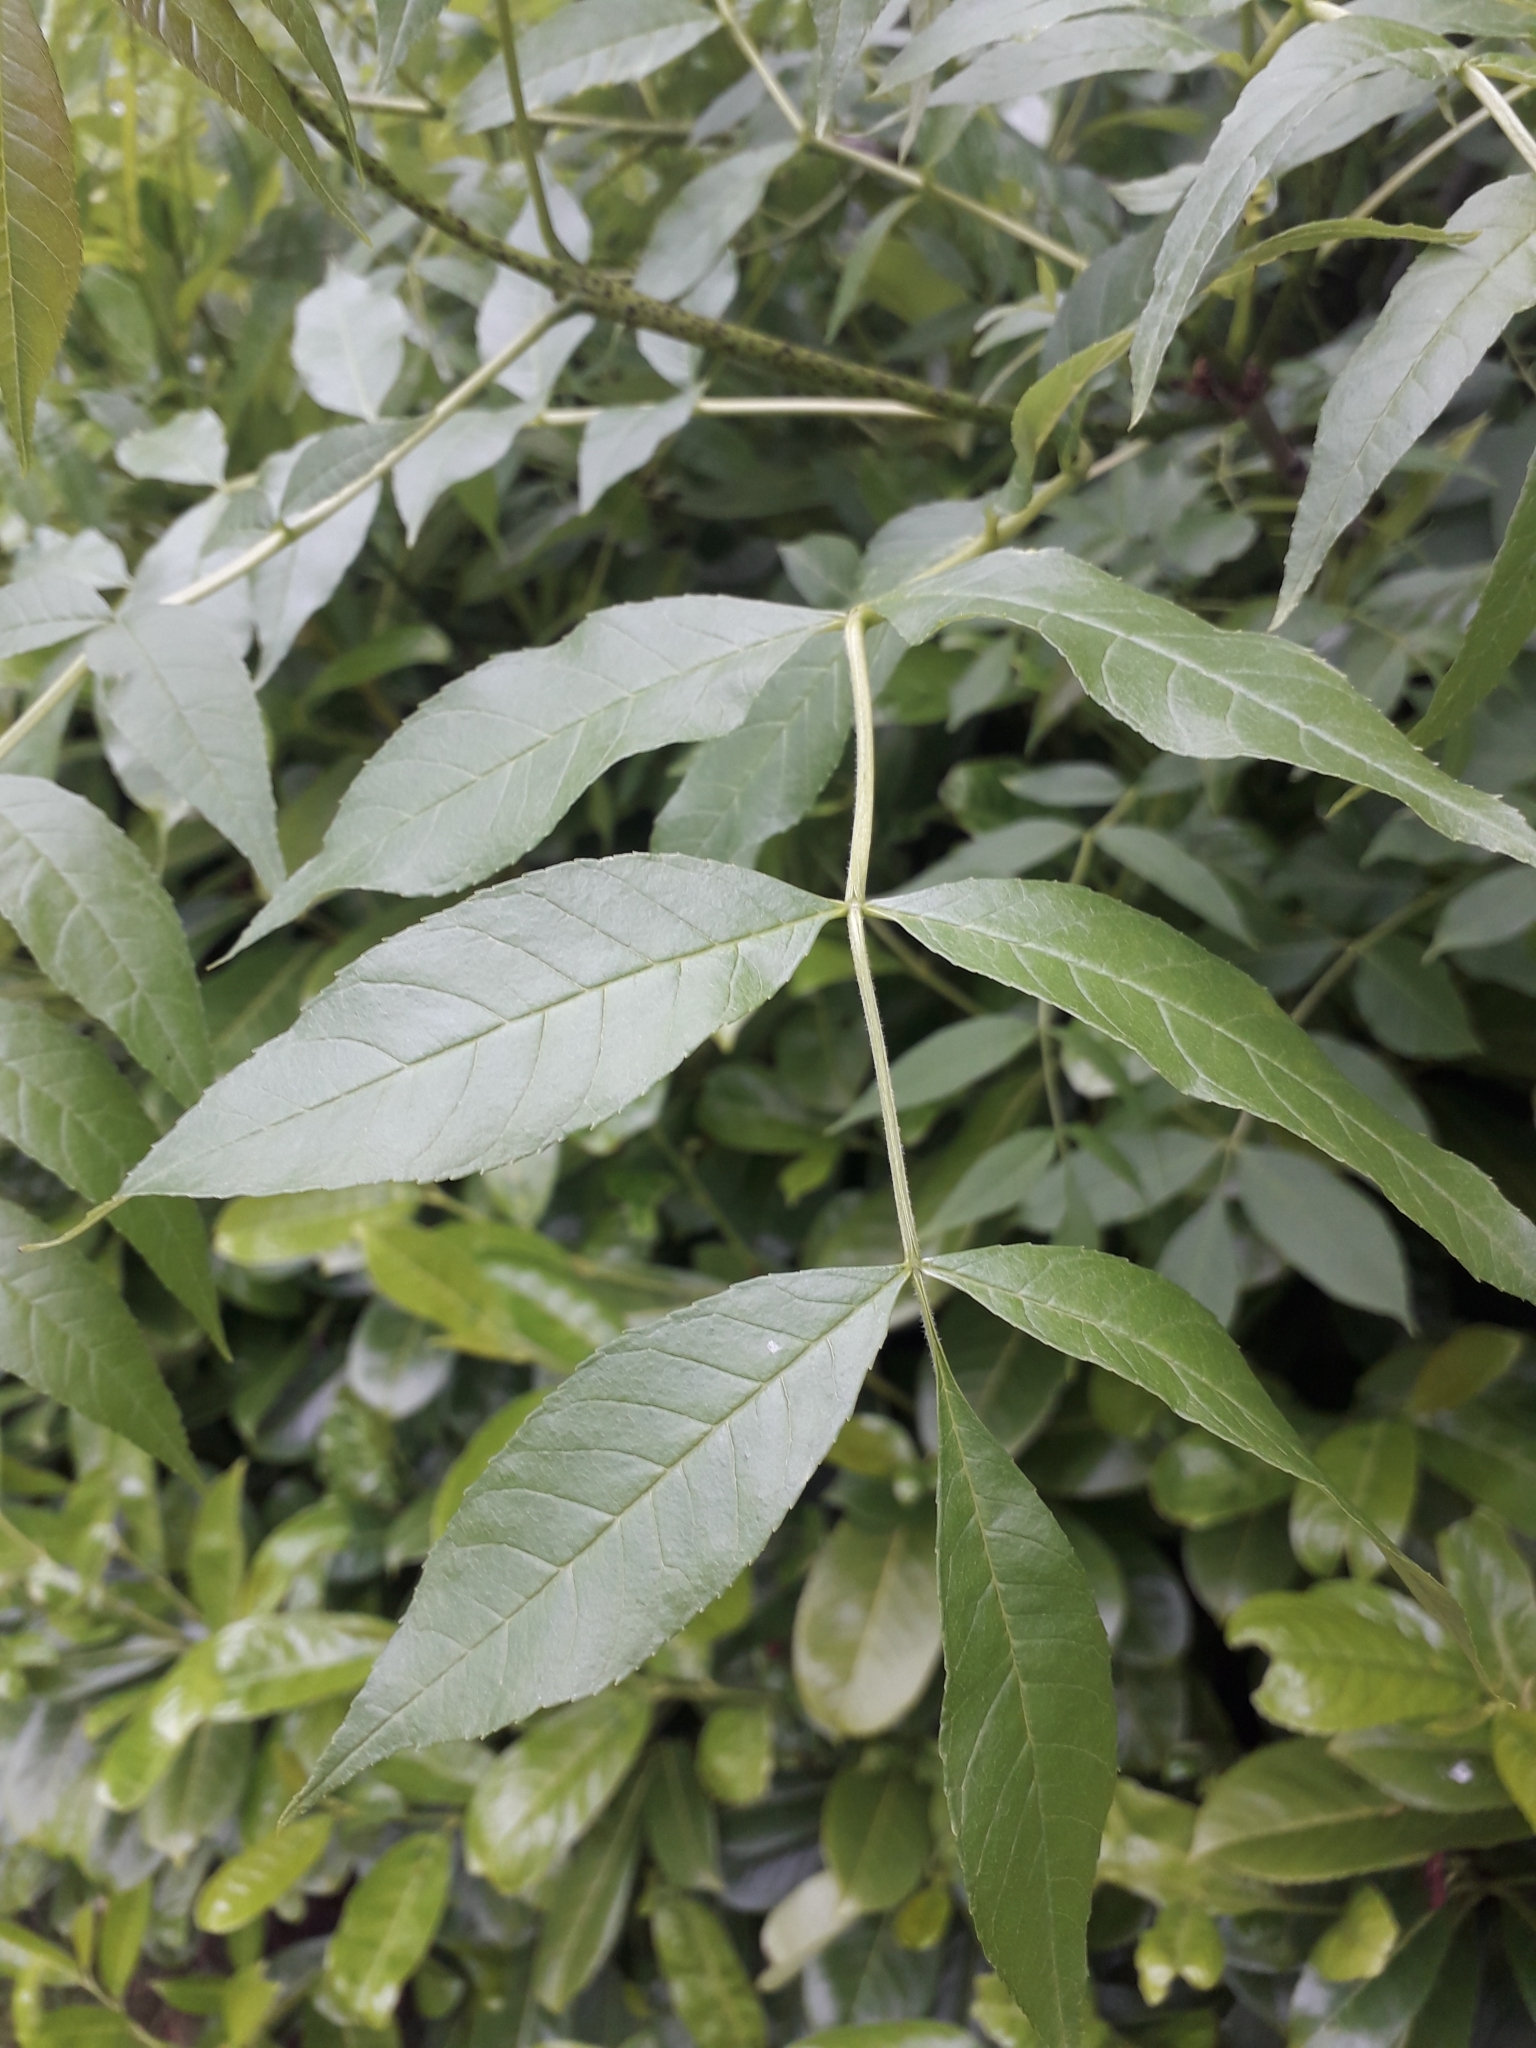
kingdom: Plantae
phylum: Tracheophyta
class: Magnoliopsida
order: Lamiales
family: Oleaceae
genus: Fraxinus
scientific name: Fraxinus excelsior
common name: European ash
